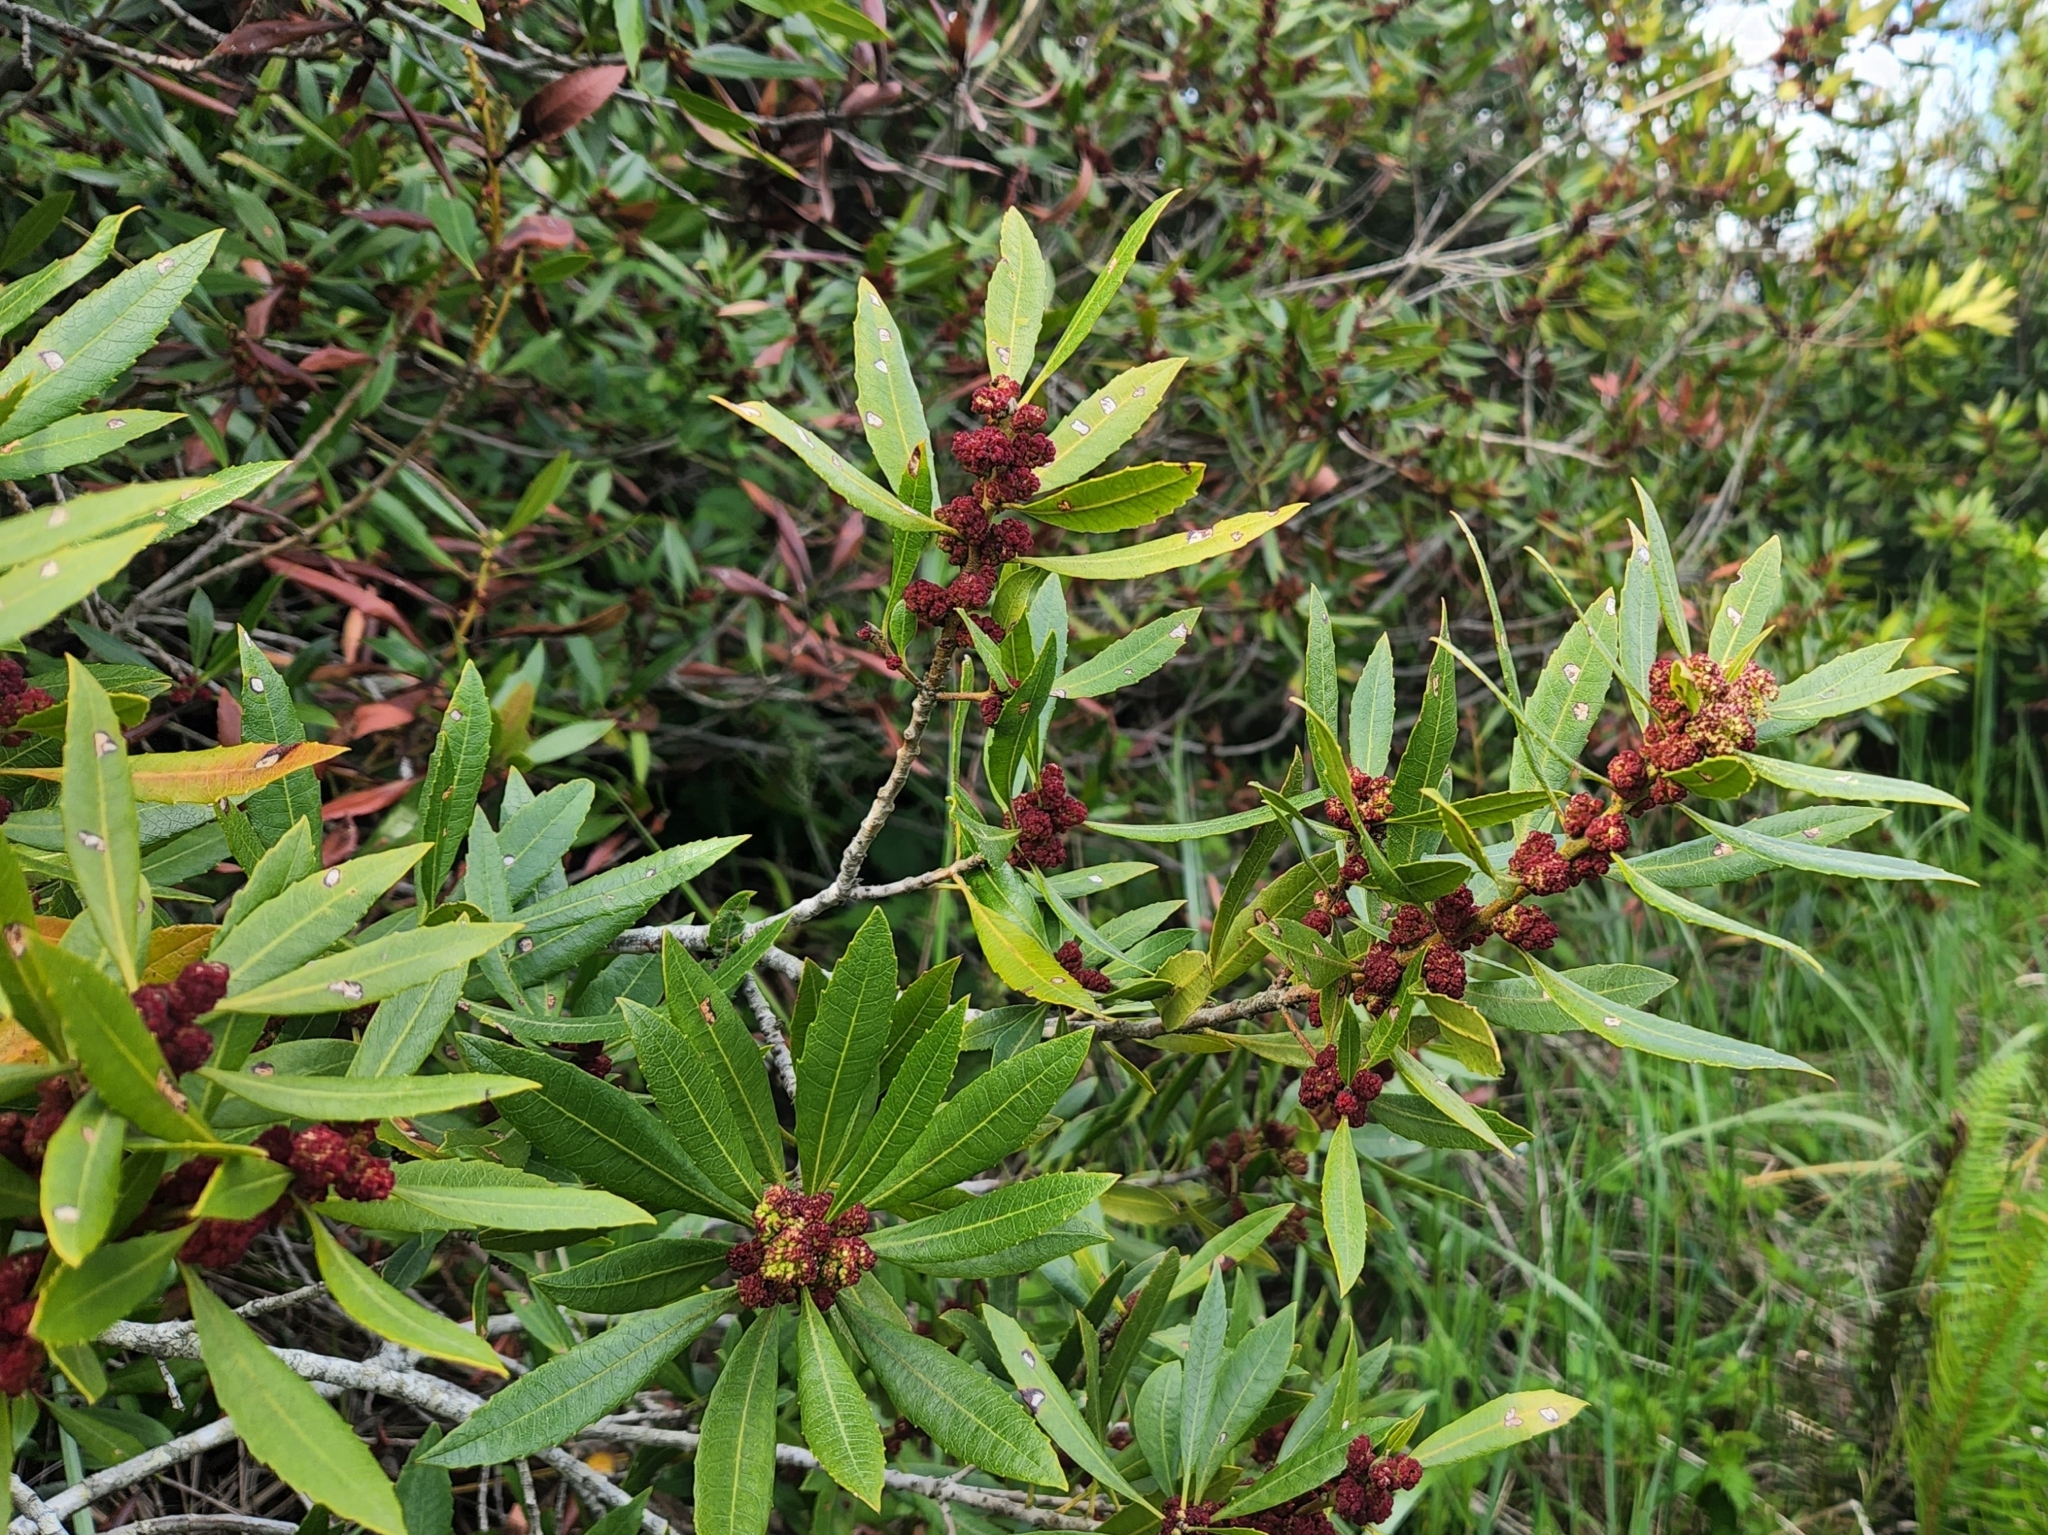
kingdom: Plantae
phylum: Tracheophyta
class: Magnoliopsida
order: Fagales
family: Myricaceae
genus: Morella
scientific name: Morella californica
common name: California wax-myrtle
